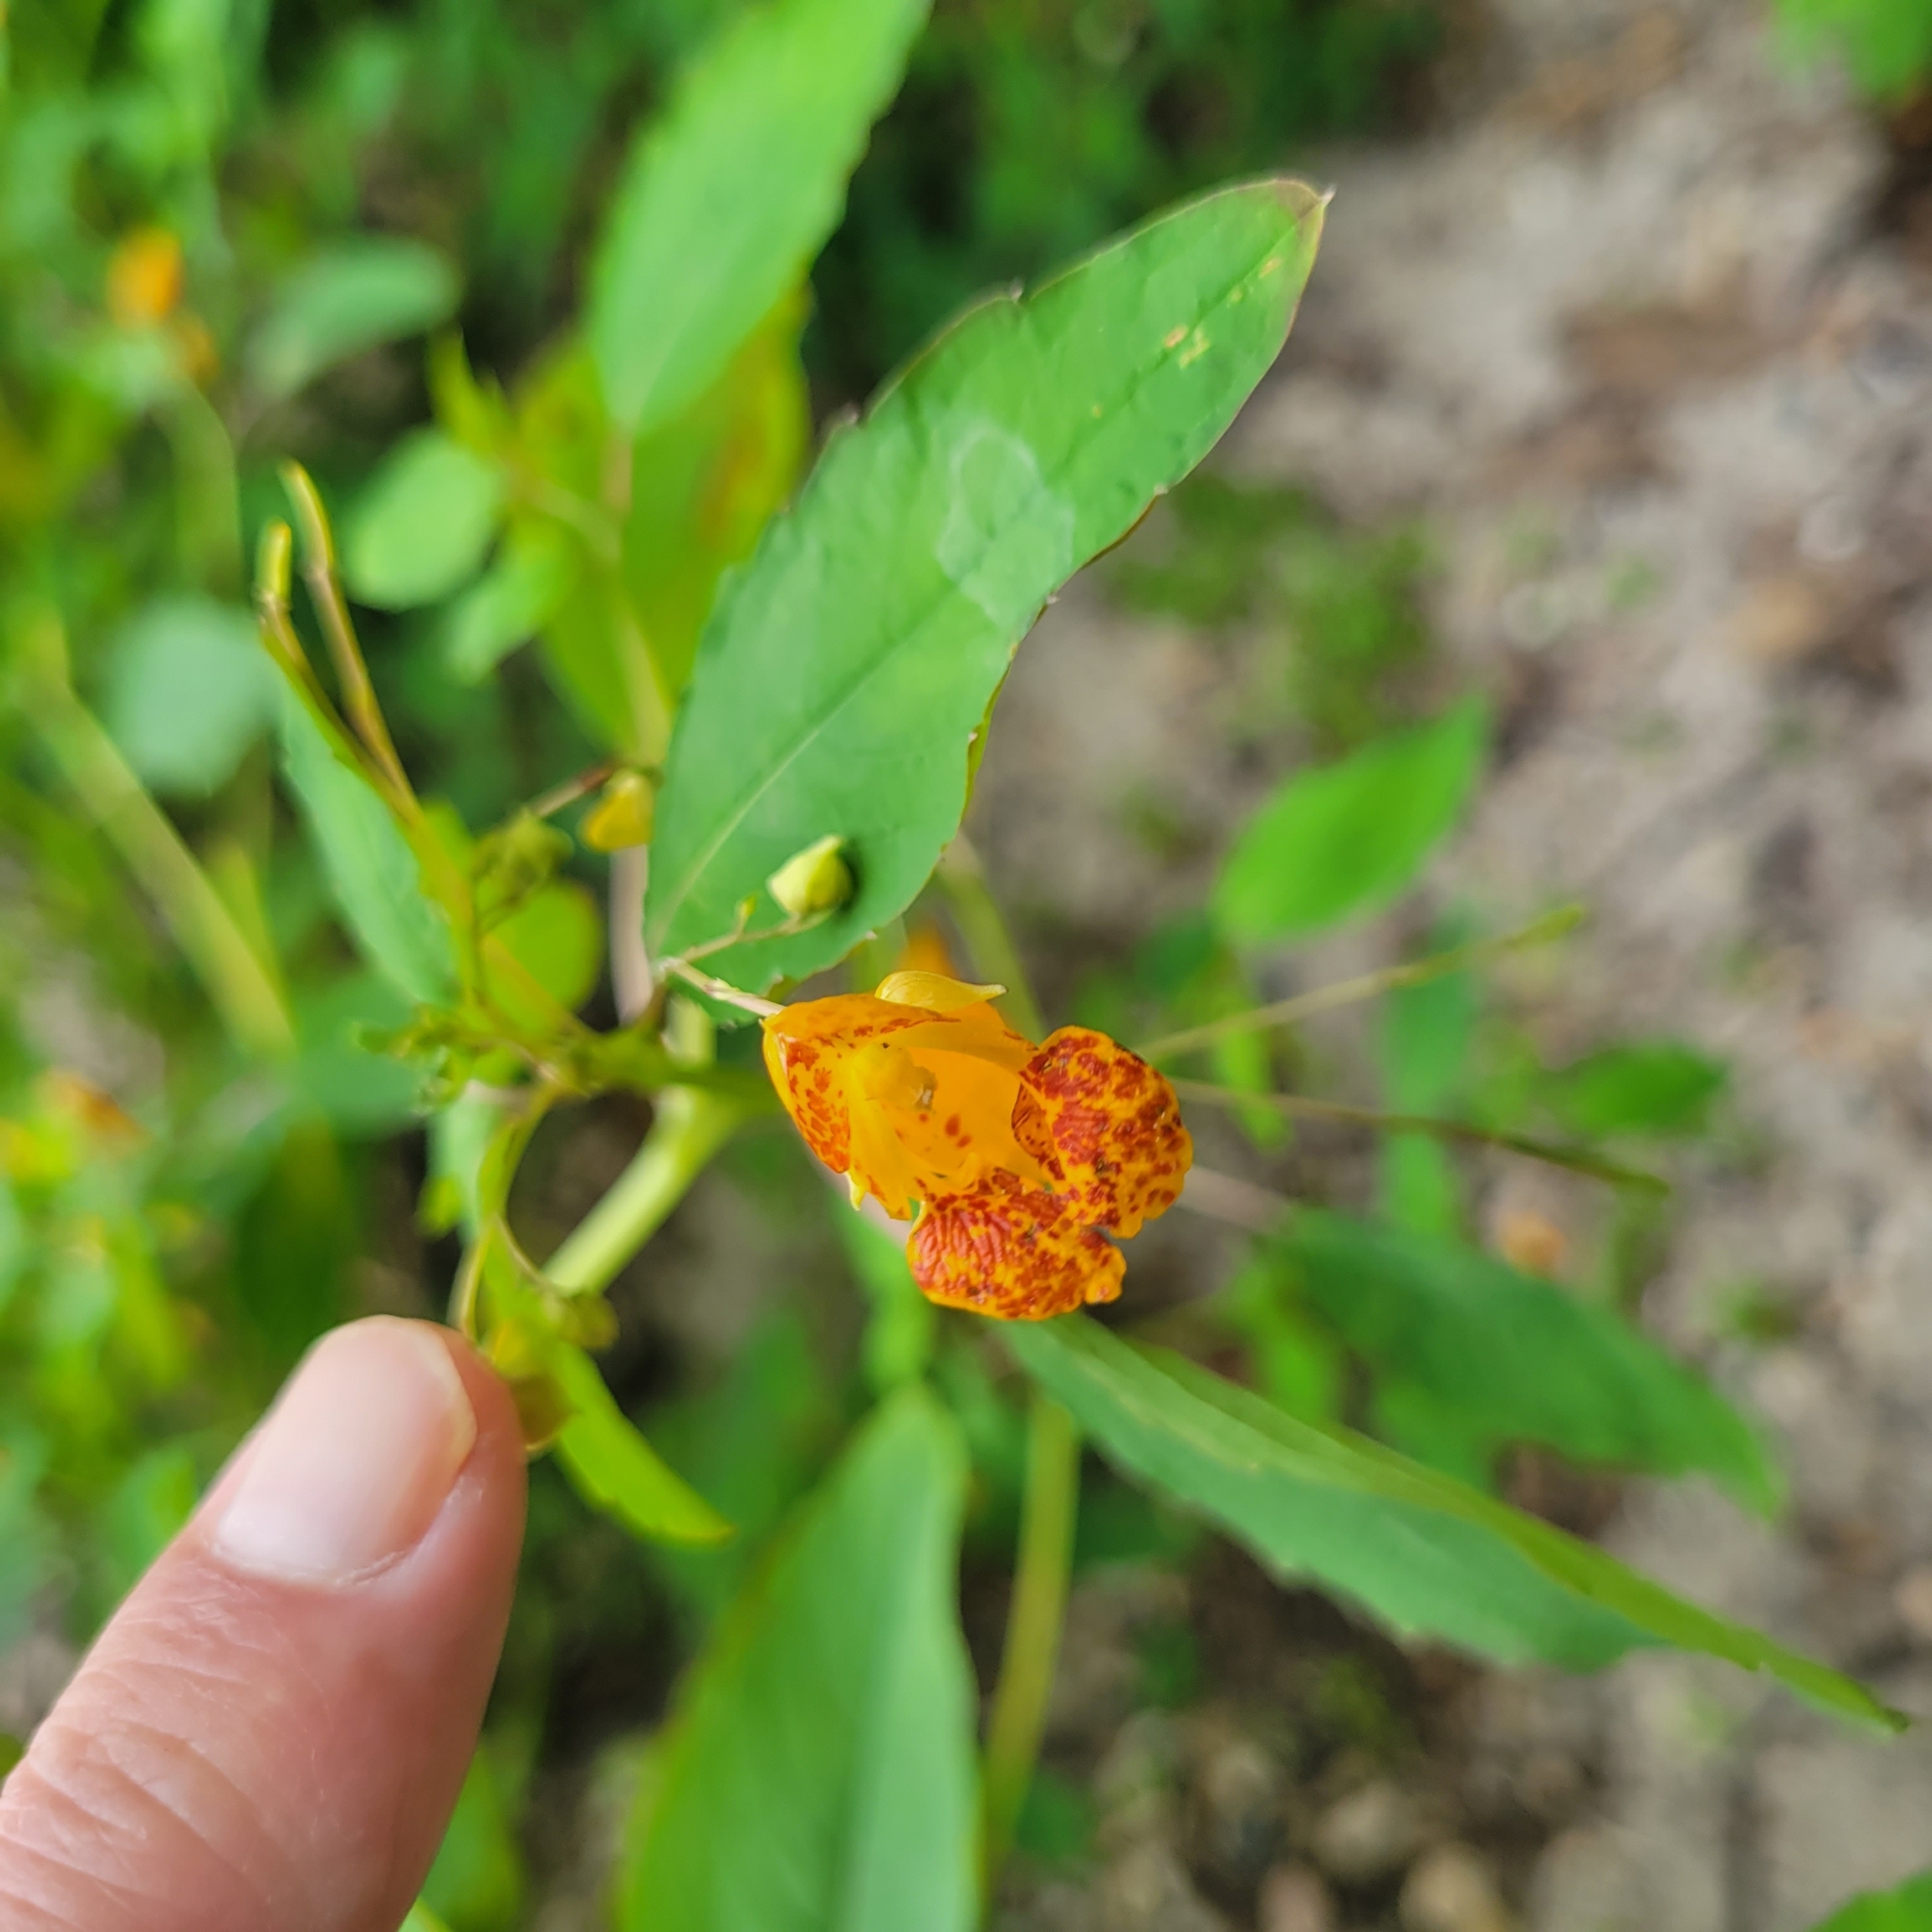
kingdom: Plantae
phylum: Tracheophyta
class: Magnoliopsida
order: Ericales
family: Balsaminaceae
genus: Impatiens
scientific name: Impatiens capensis
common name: Orange balsam
